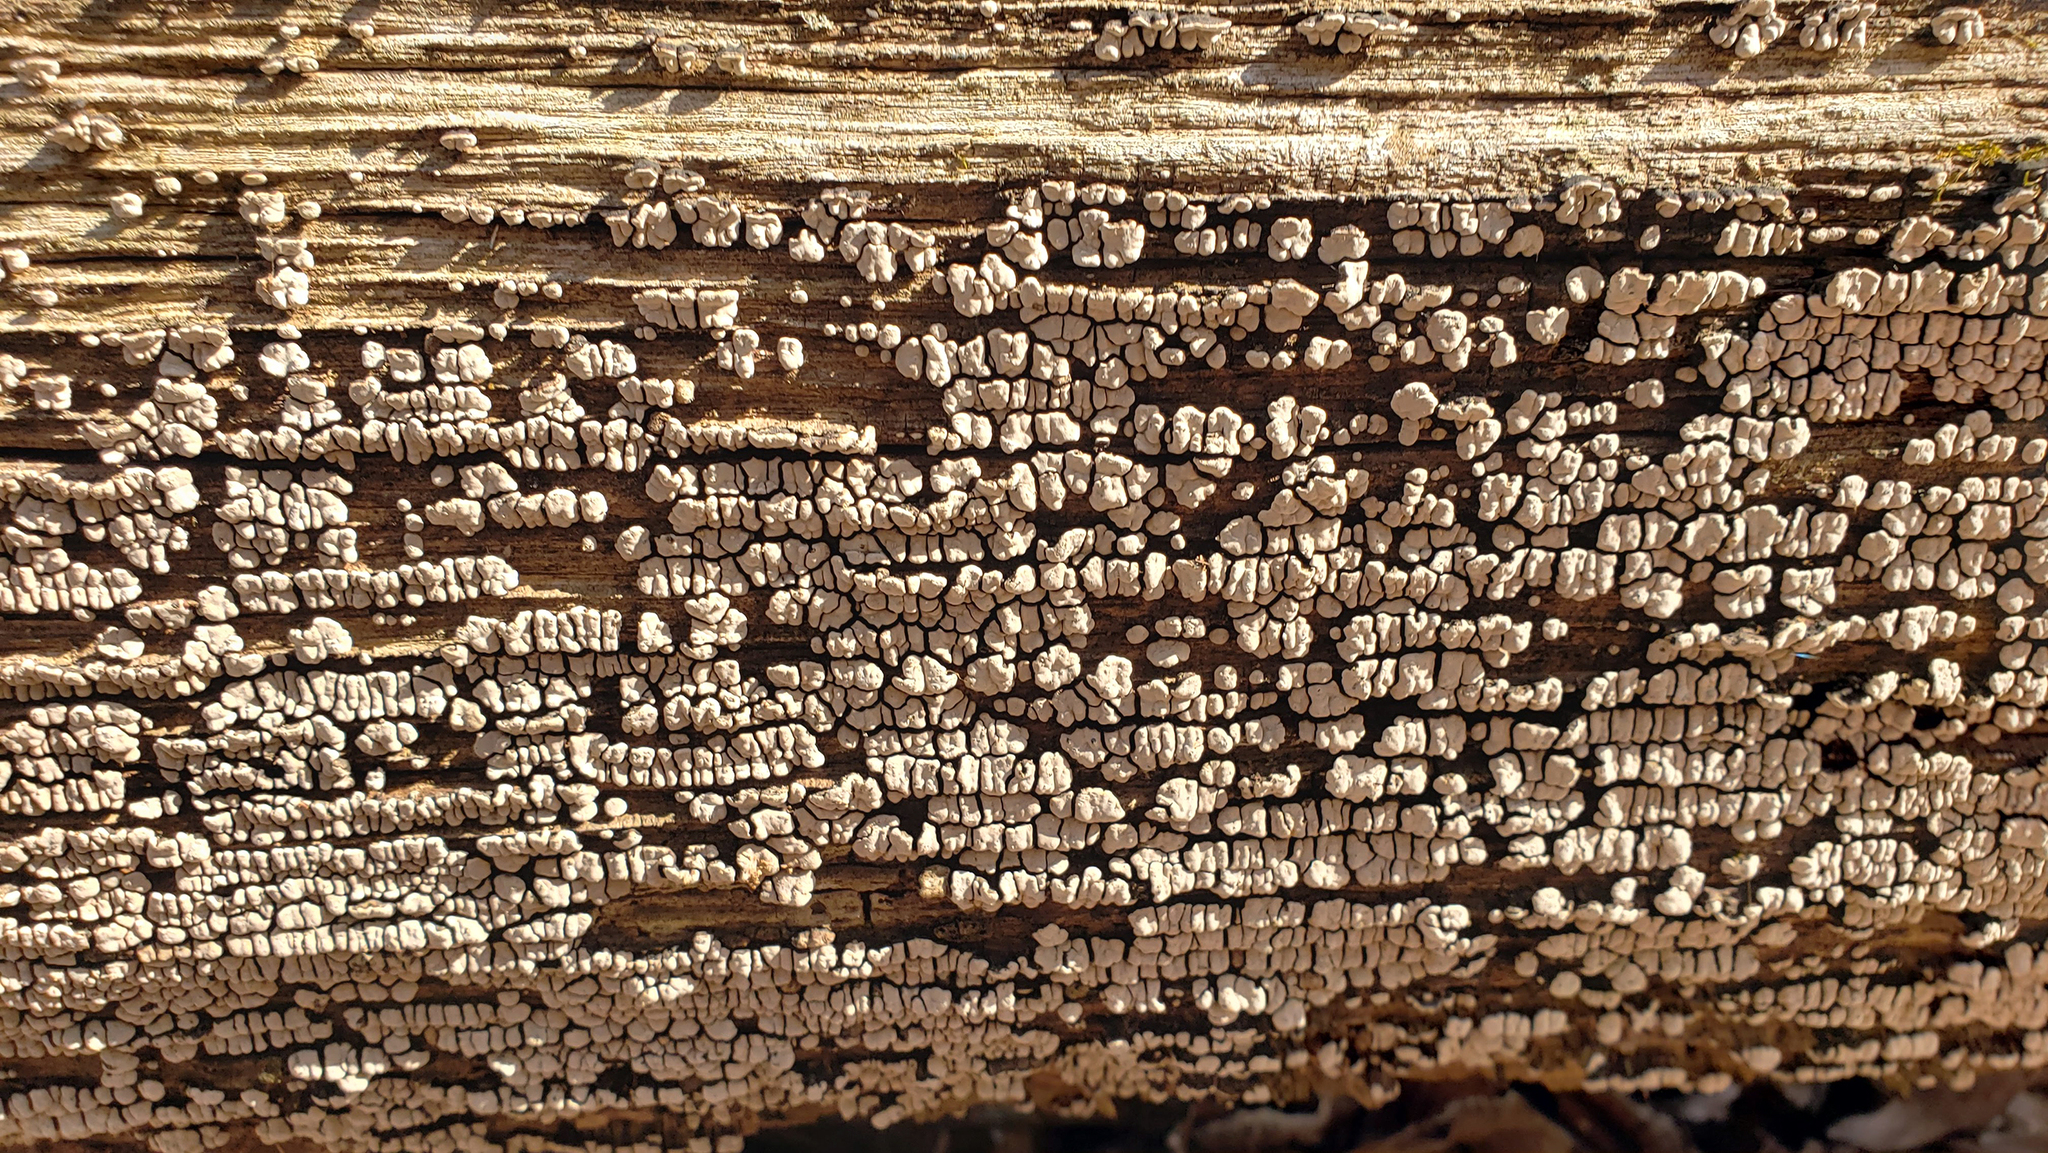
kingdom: Fungi
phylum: Basidiomycota
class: Agaricomycetes
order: Russulales
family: Stereaceae
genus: Xylobolus
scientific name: Xylobolus frustulatus
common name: Ceramic parchment
